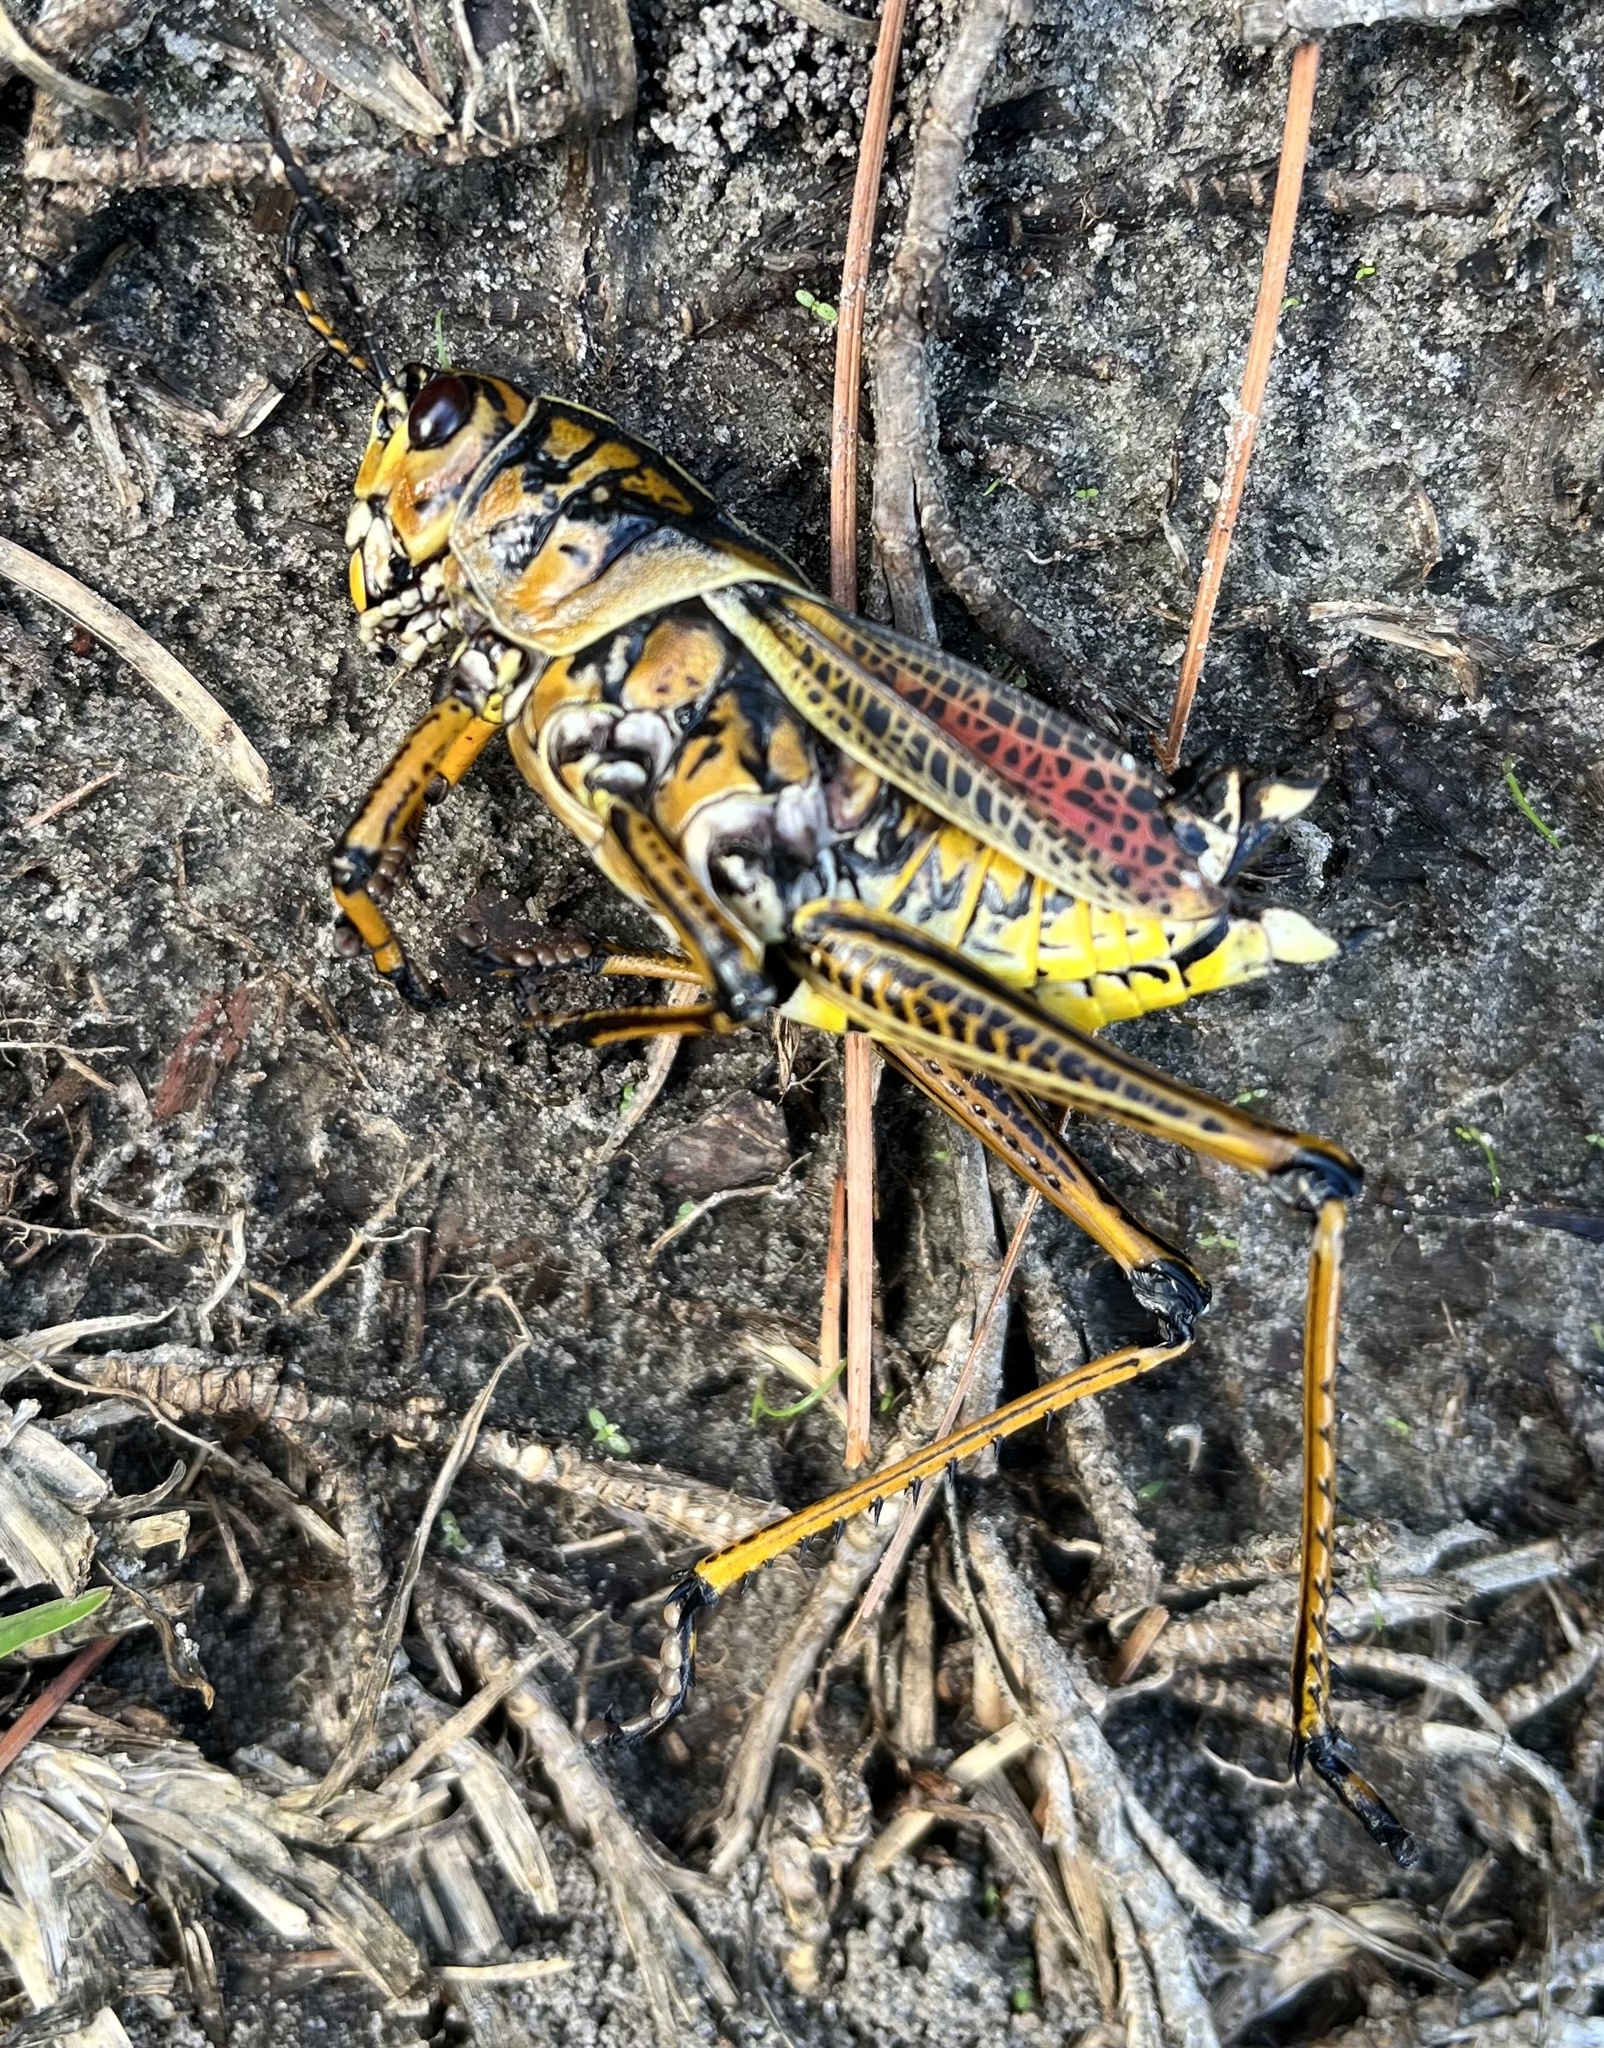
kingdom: Animalia
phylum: Arthropoda
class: Insecta
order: Orthoptera
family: Romaleidae
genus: Romalea
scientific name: Romalea microptera
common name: Eastern lubber grasshopper
